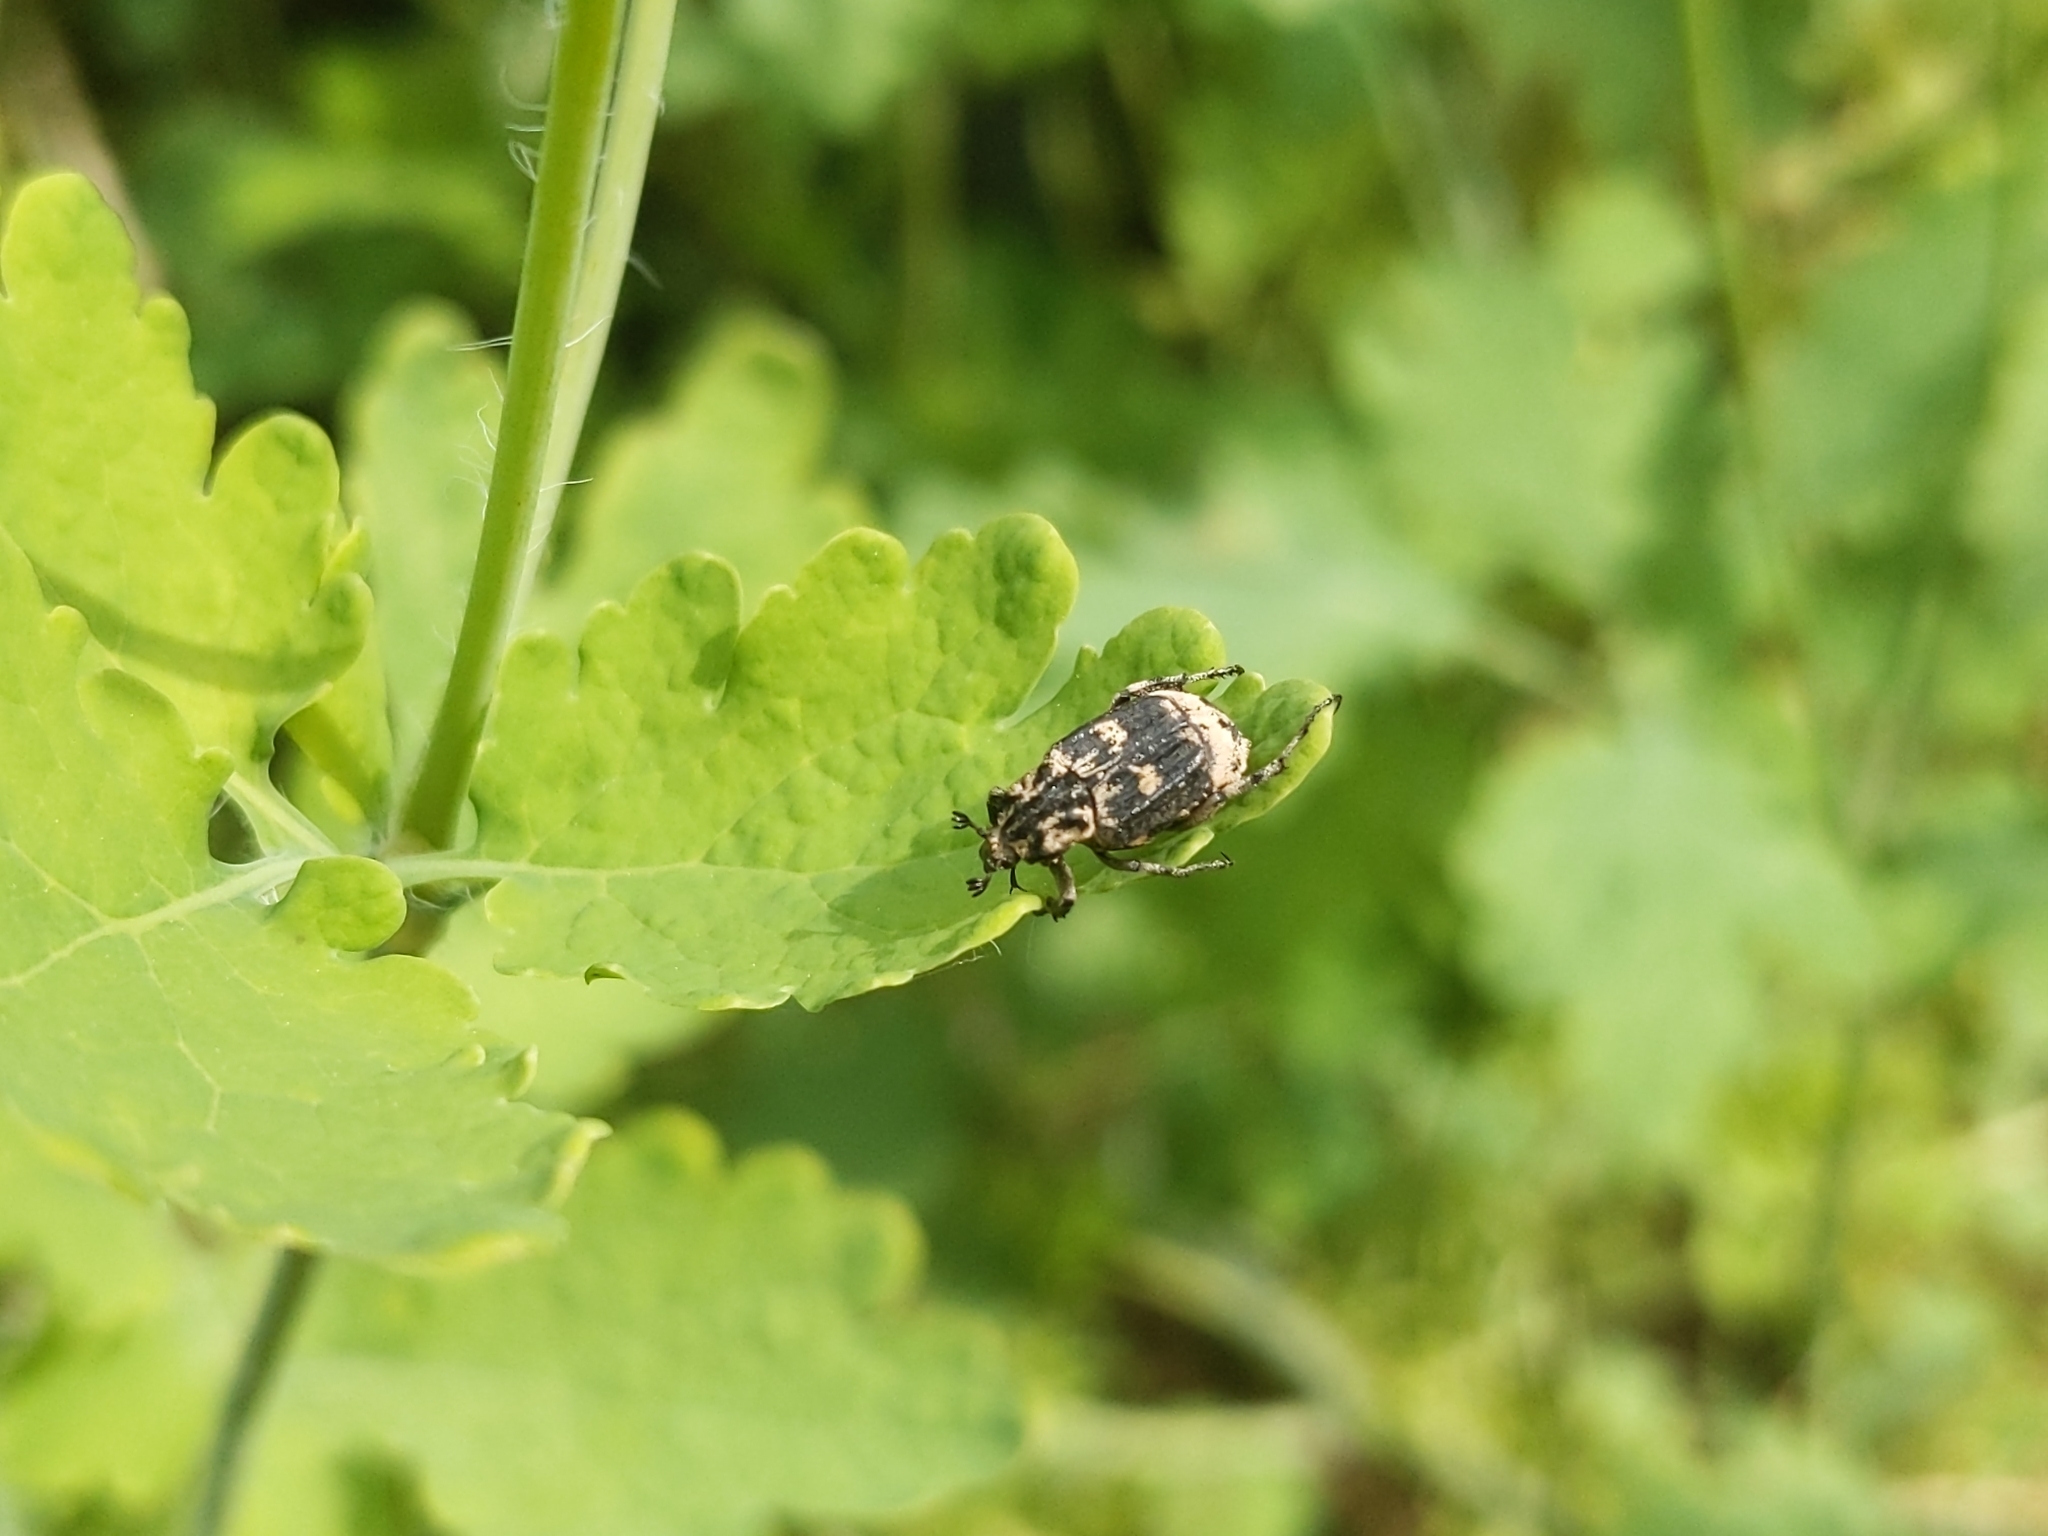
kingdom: Animalia
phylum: Arthropoda
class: Insecta
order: Coleoptera
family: Scarabaeidae
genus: Valgus
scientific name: Valgus hemipterus
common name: Bug flower chafer
